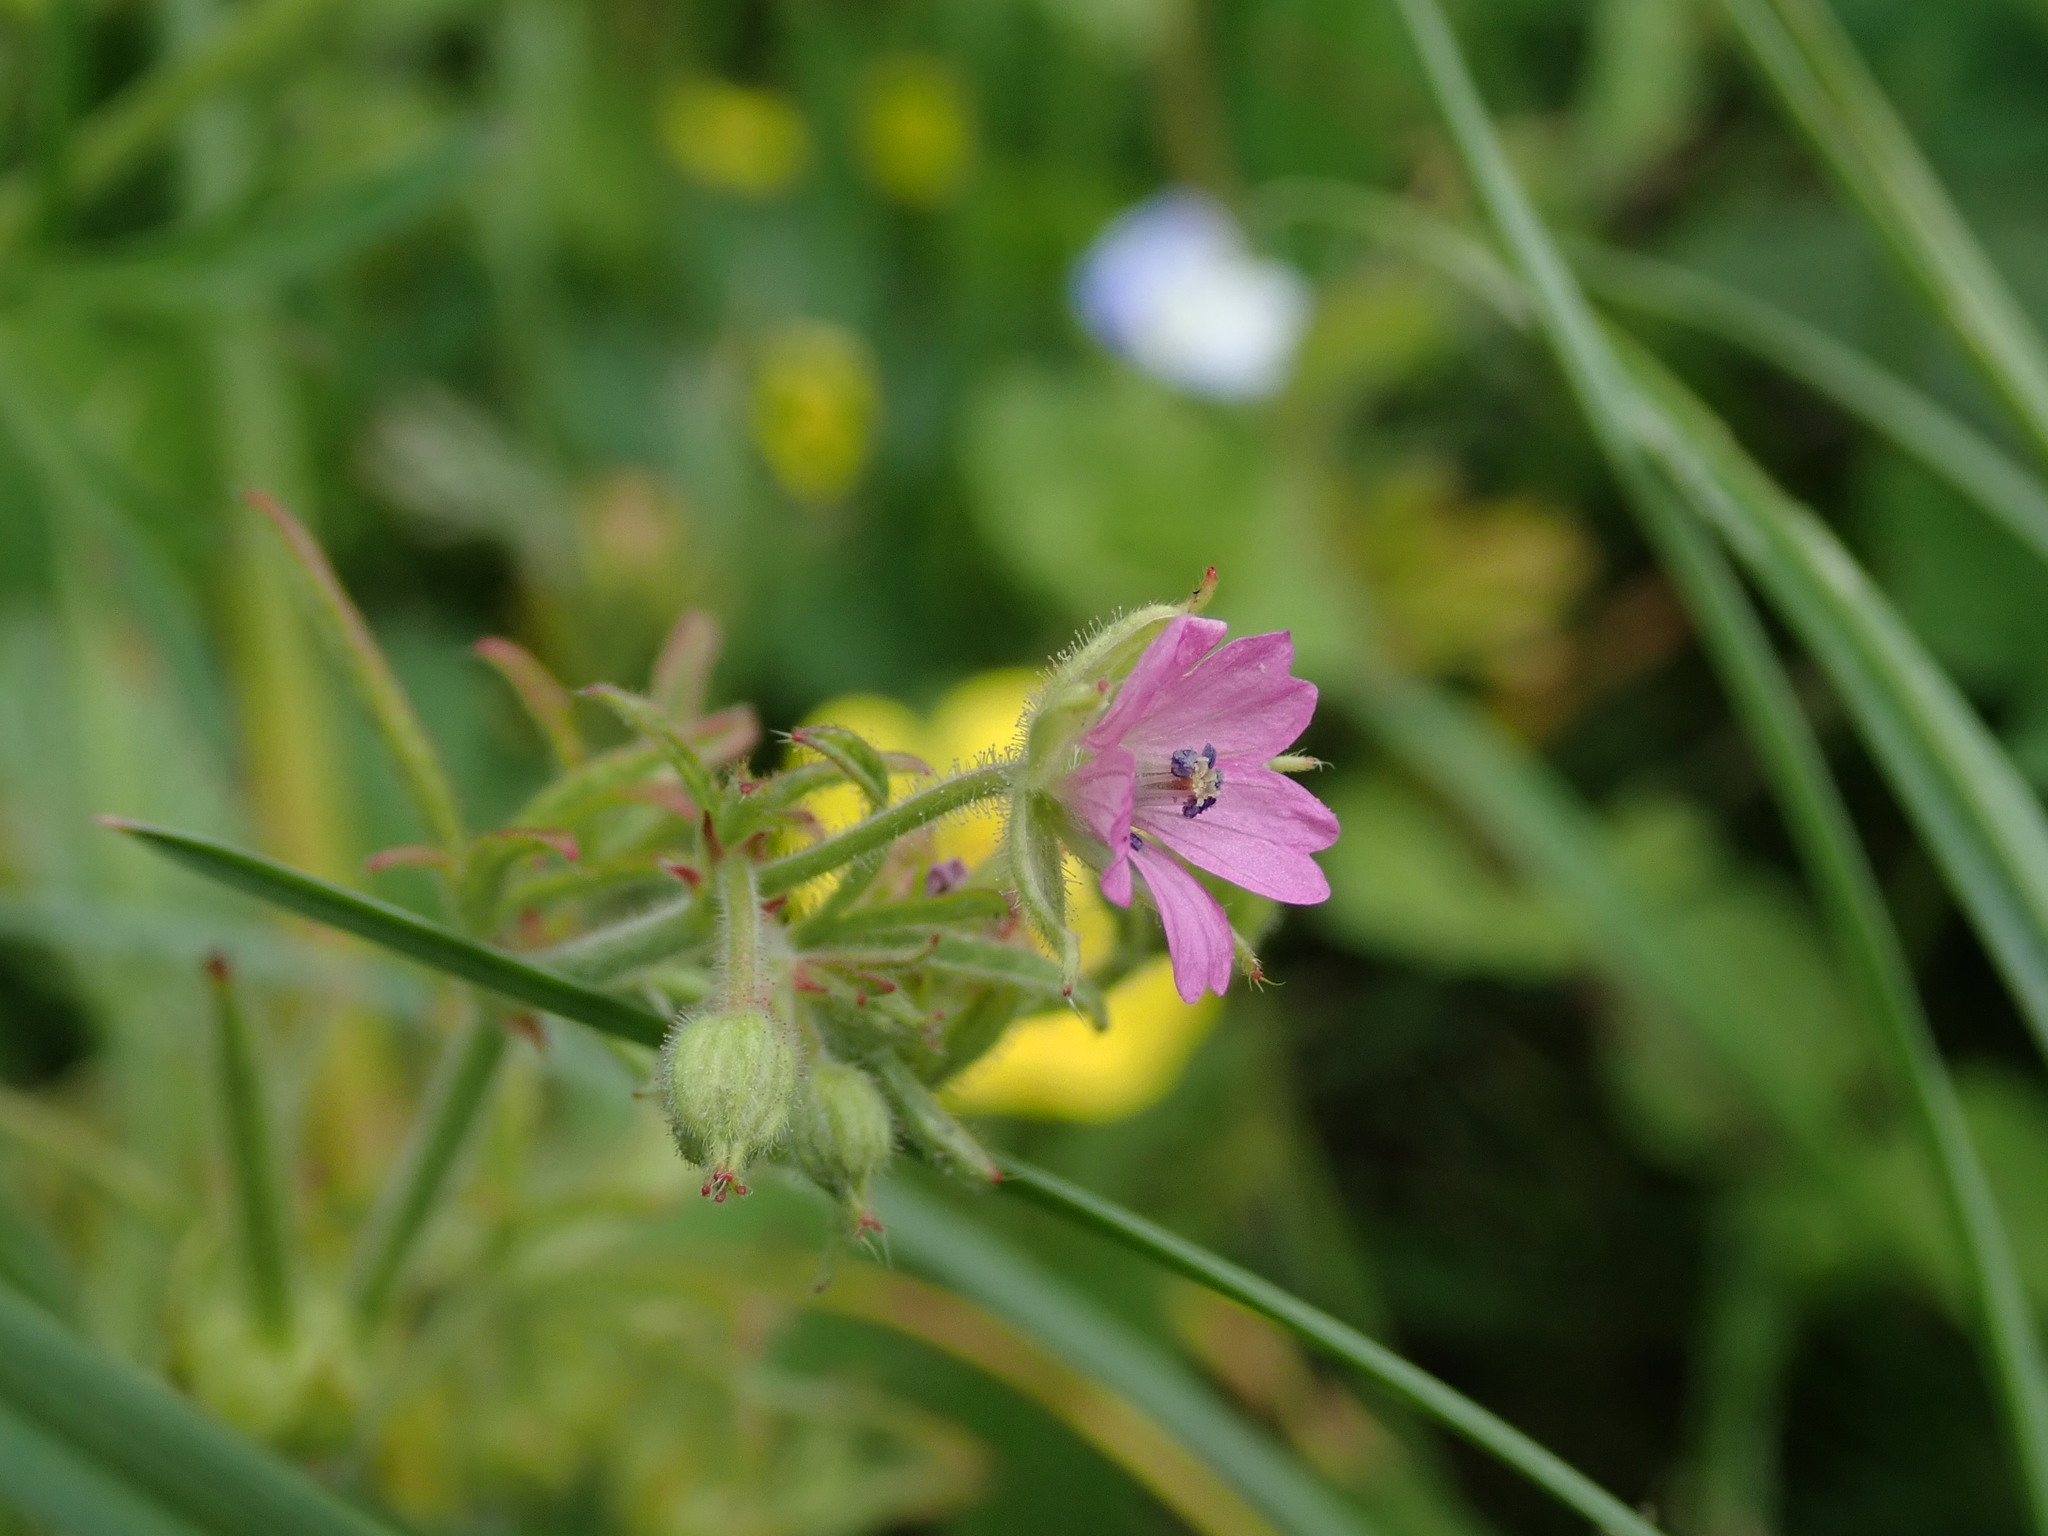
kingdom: Plantae
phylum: Tracheophyta
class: Magnoliopsida
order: Geraniales
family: Geraniaceae
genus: Geranium
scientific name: Geranium dissectum
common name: Cut-leaved crane's-bill
